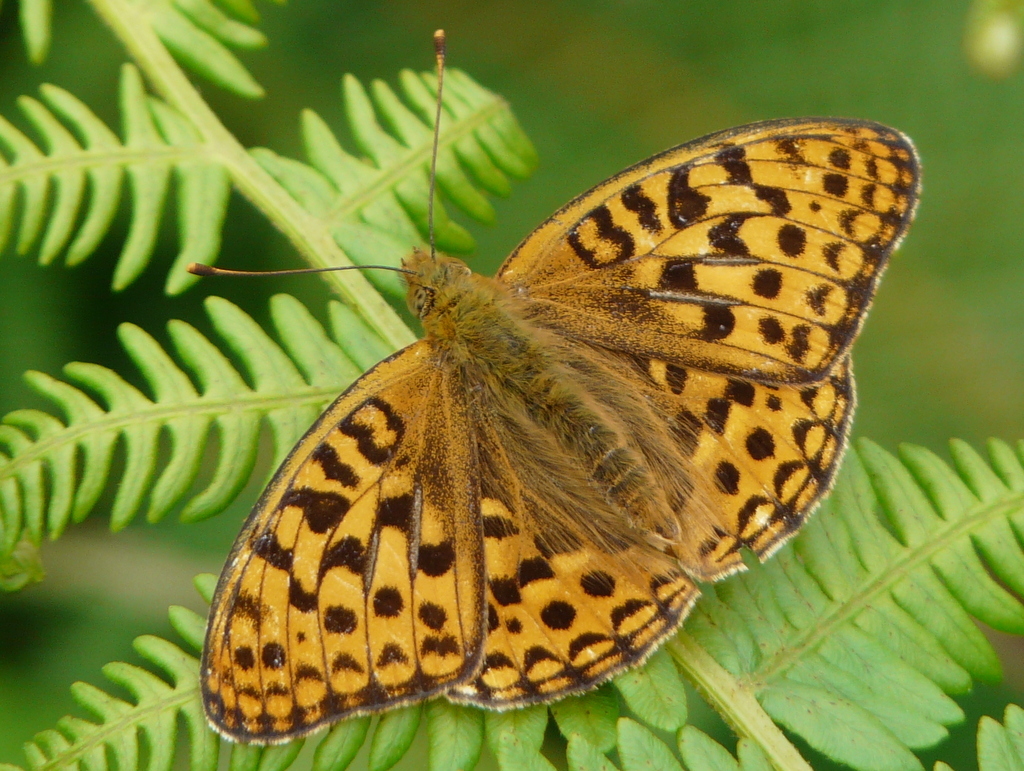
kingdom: Animalia
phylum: Arthropoda
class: Insecta
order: Lepidoptera
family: Nymphalidae
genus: Fabriciana
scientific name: Fabriciana adippe
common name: High brown fritillary
